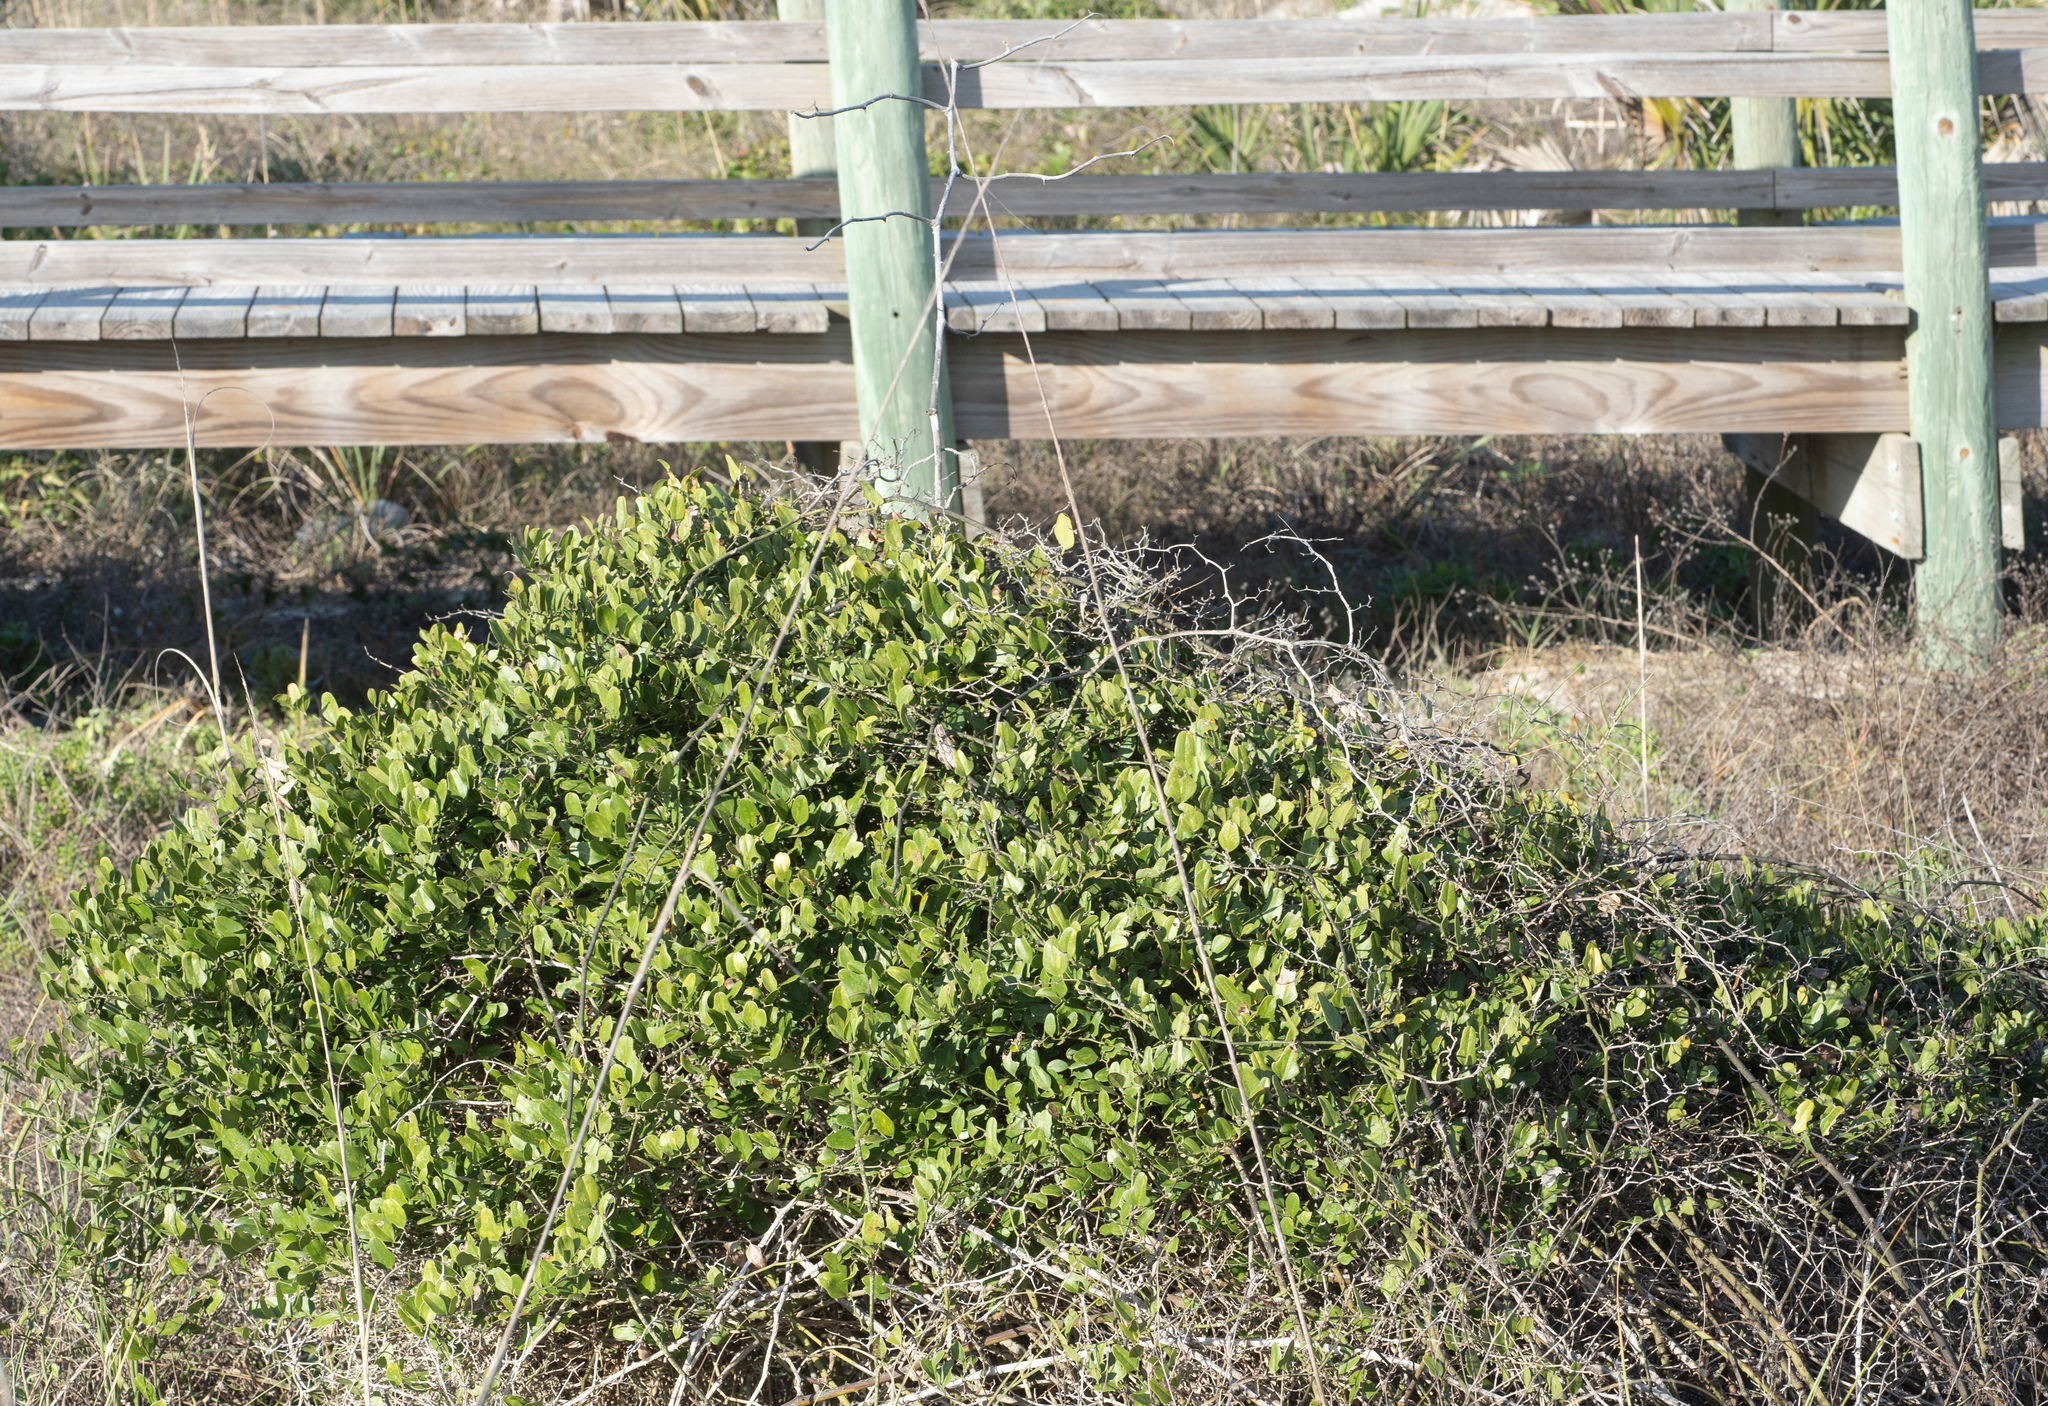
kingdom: Plantae
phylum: Tracheophyta
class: Liliopsida
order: Liliales
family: Smilacaceae
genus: Smilax
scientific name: Smilax auriculata
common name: Wild bamboo
